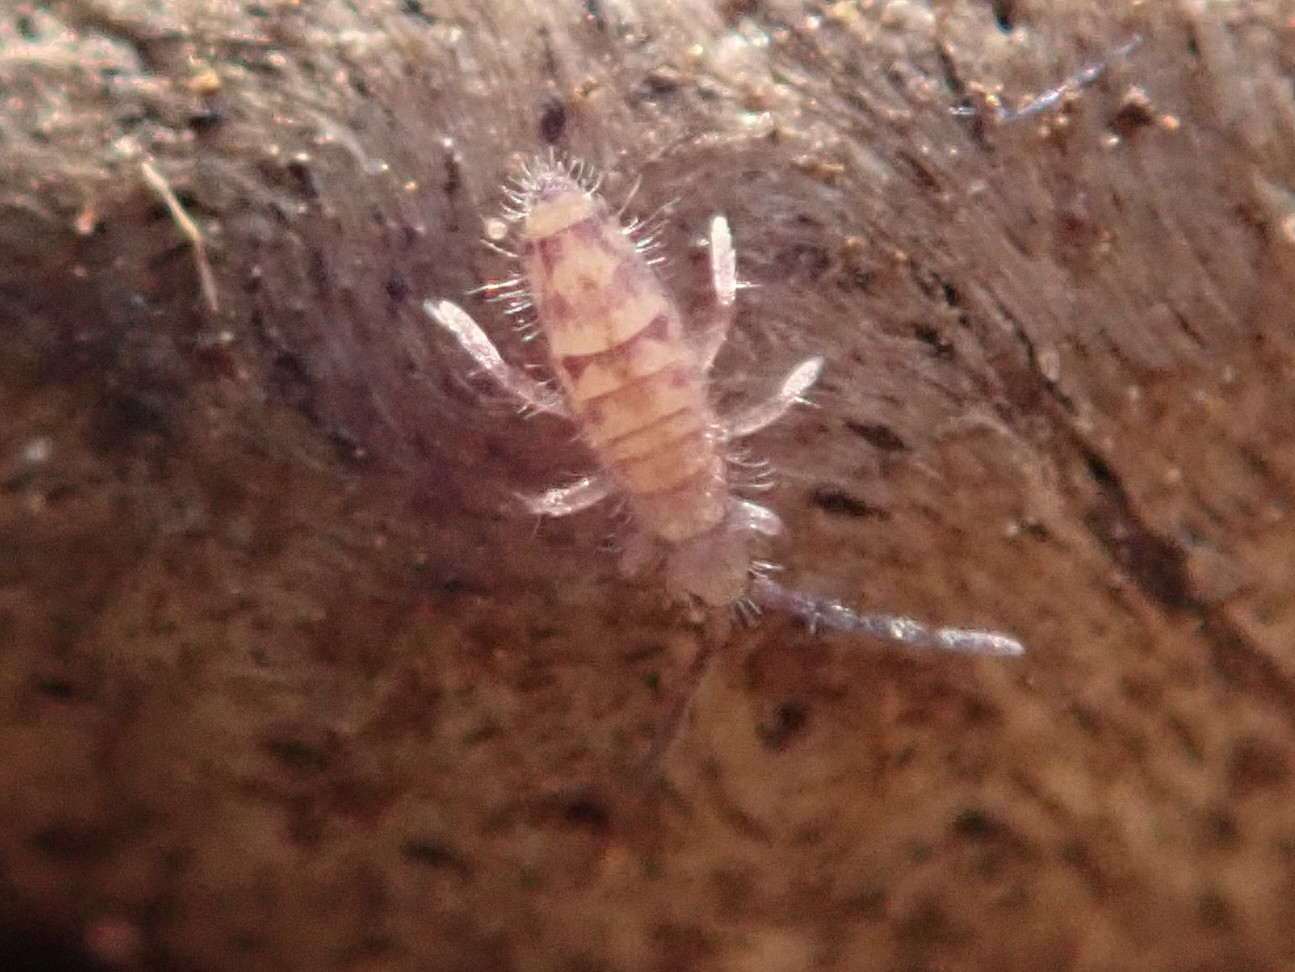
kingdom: Animalia
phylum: Arthropoda
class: Collembola
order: Entomobryomorpha
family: Entomobryidae
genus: Entomobrya
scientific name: Entomobrya multifasciata
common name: Springtail
